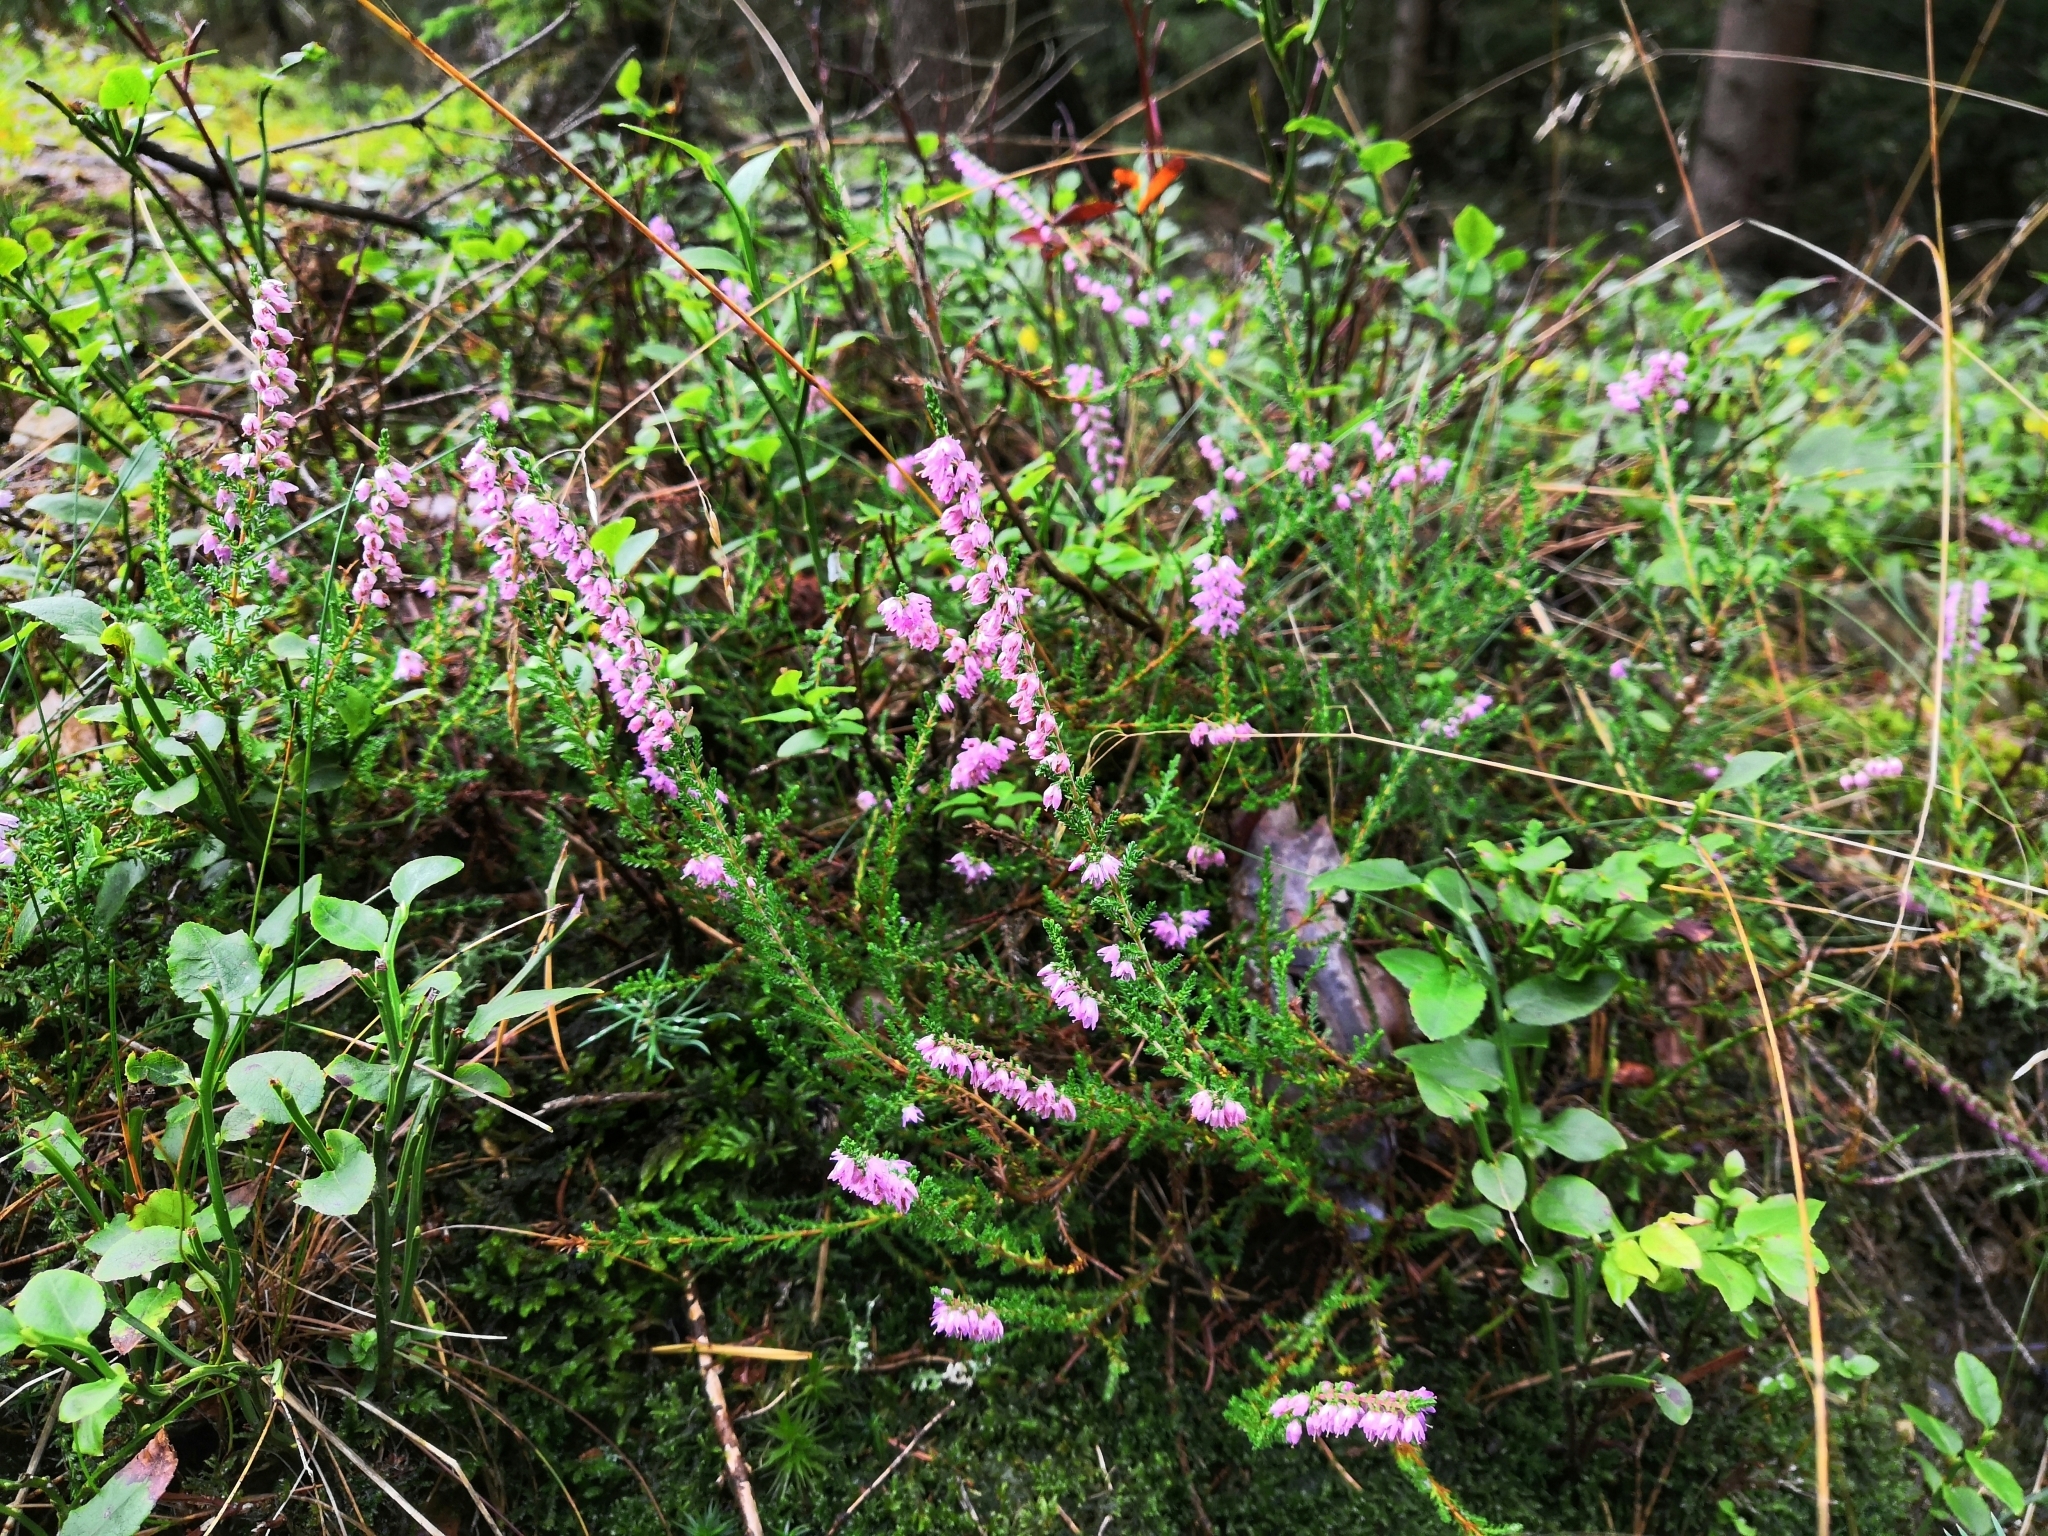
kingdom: Plantae
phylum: Tracheophyta
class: Magnoliopsida
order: Ericales
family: Ericaceae
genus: Calluna
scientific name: Calluna vulgaris
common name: Heather
